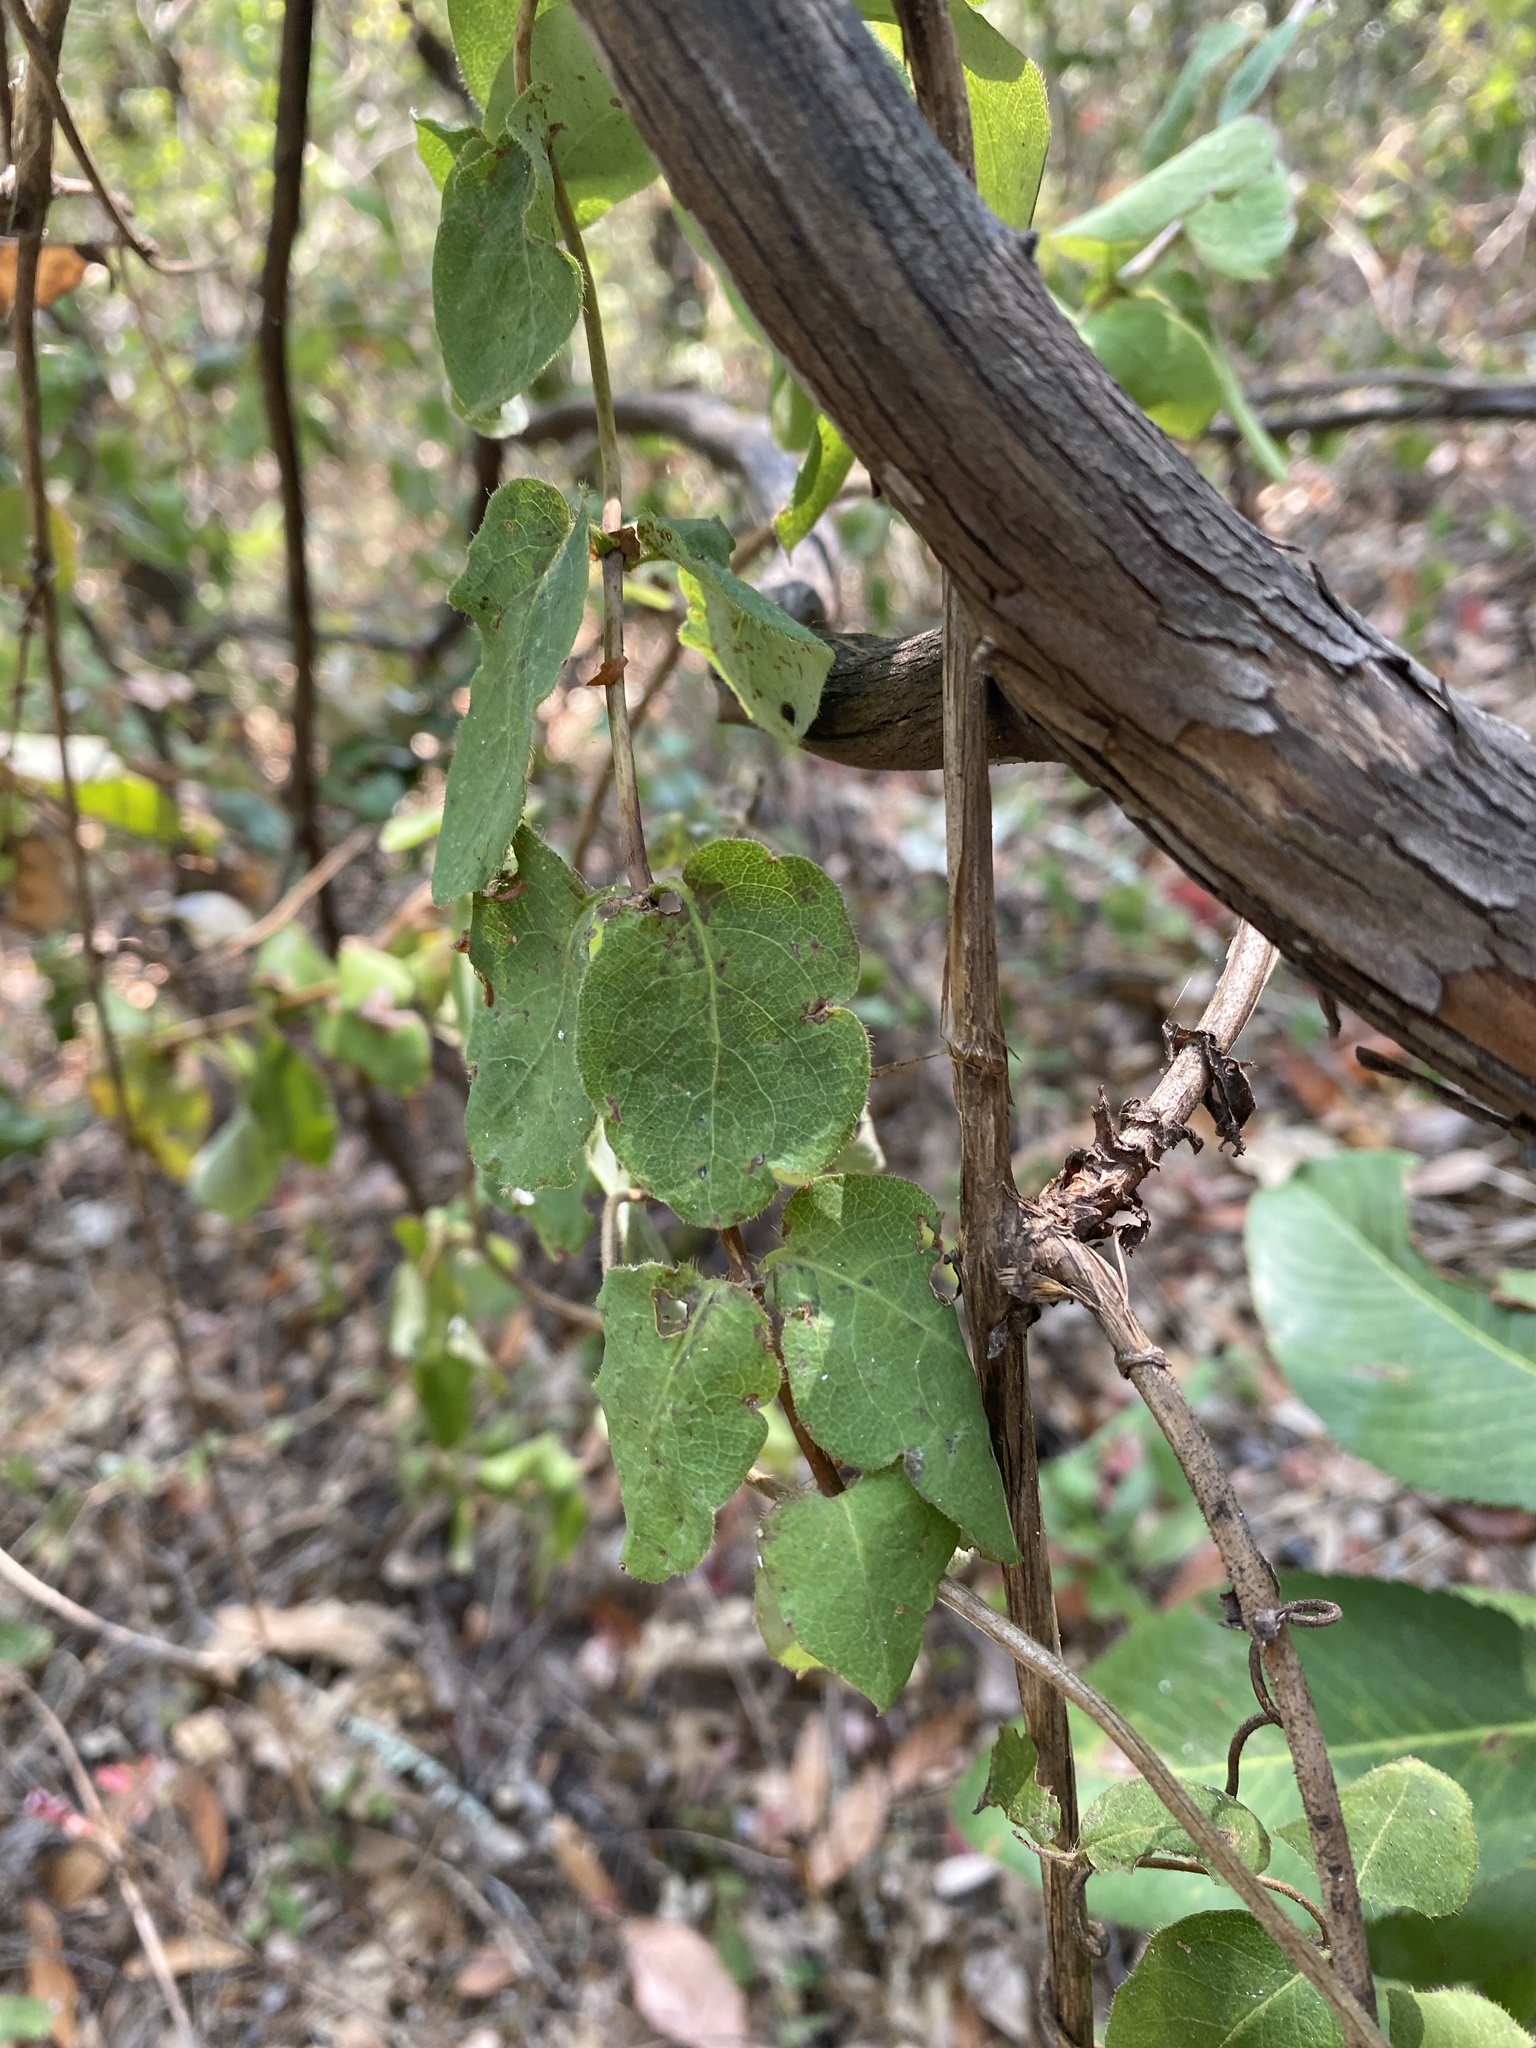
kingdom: Plantae
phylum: Tracheophyta
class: Magnoliopsida
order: Dipsacales
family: Caprifoliaceae
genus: Lonicera
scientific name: Lonicera hispidula
